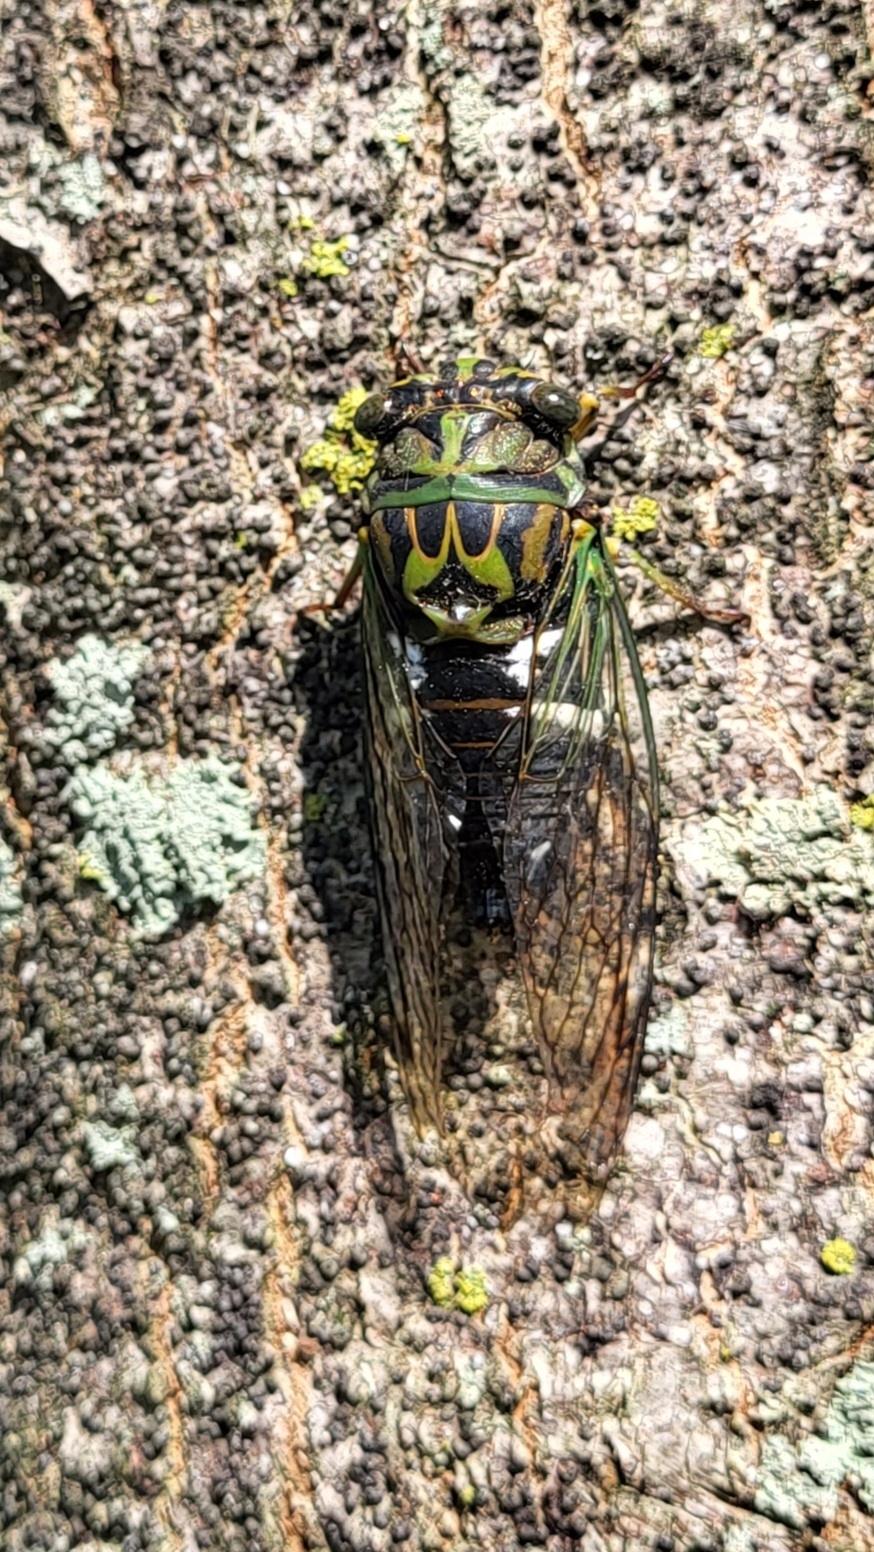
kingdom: Animalia
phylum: Arthropoda
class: Insecta
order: Hemiptera
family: Cicadidae
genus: Neotibicen
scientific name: Neotibicen latifasciatus
